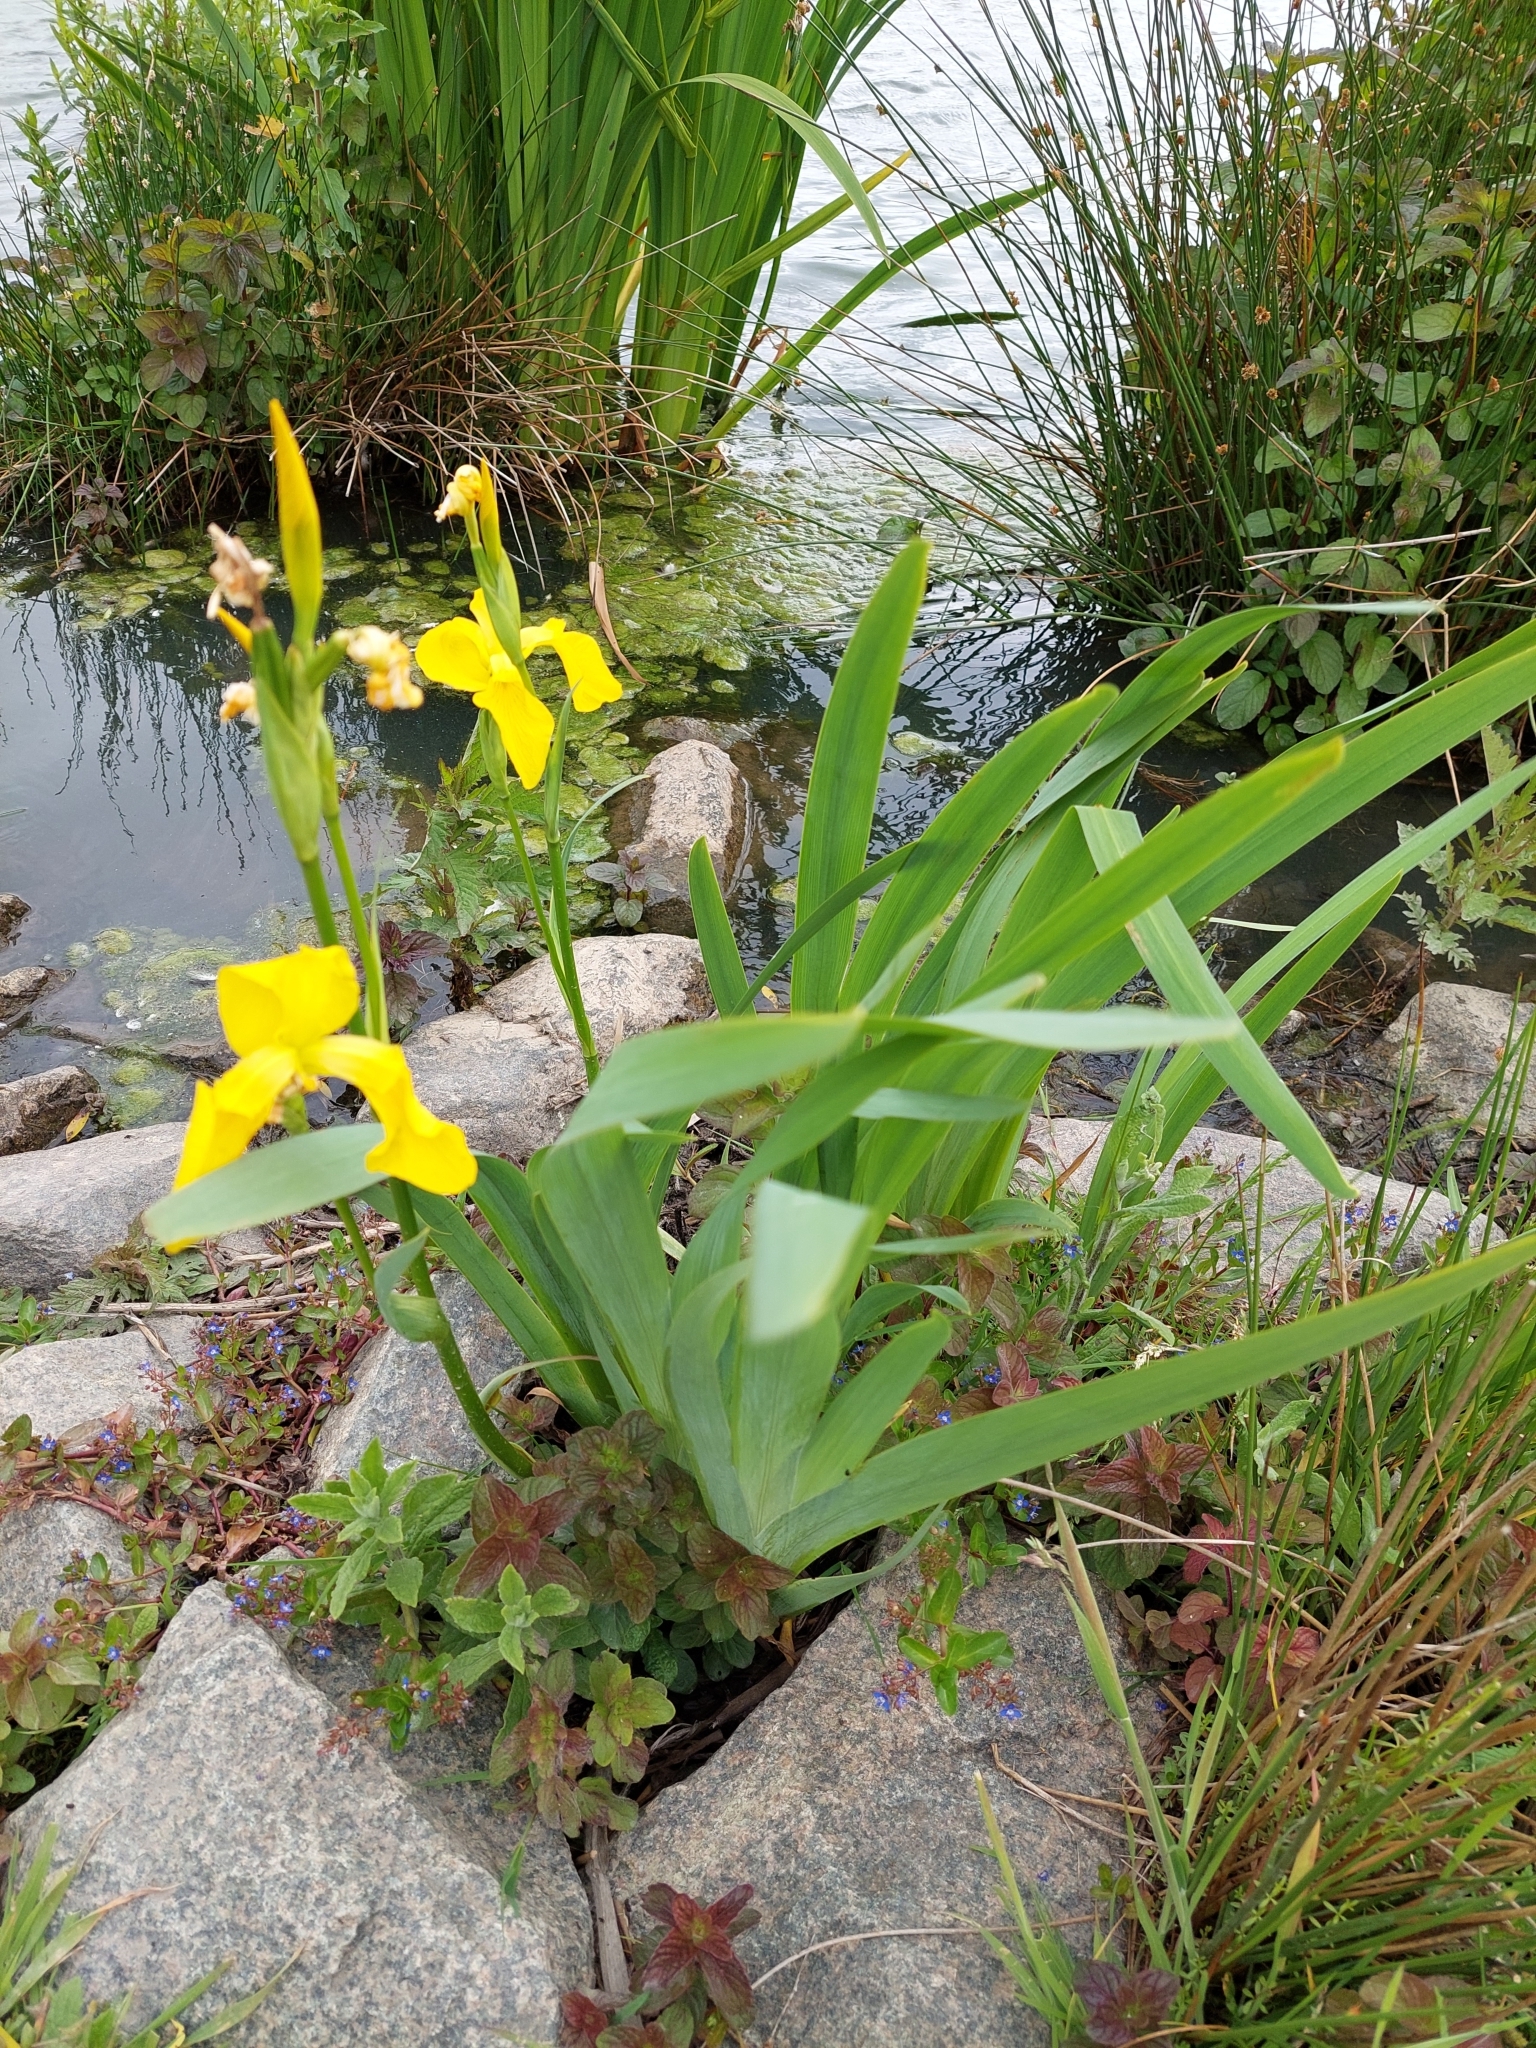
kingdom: Plantae
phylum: Tracheophyta
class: Liliopsida
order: Asparagales
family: Iridaceae
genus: Iris
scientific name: Iris pseudacorus
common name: Yellow flag
